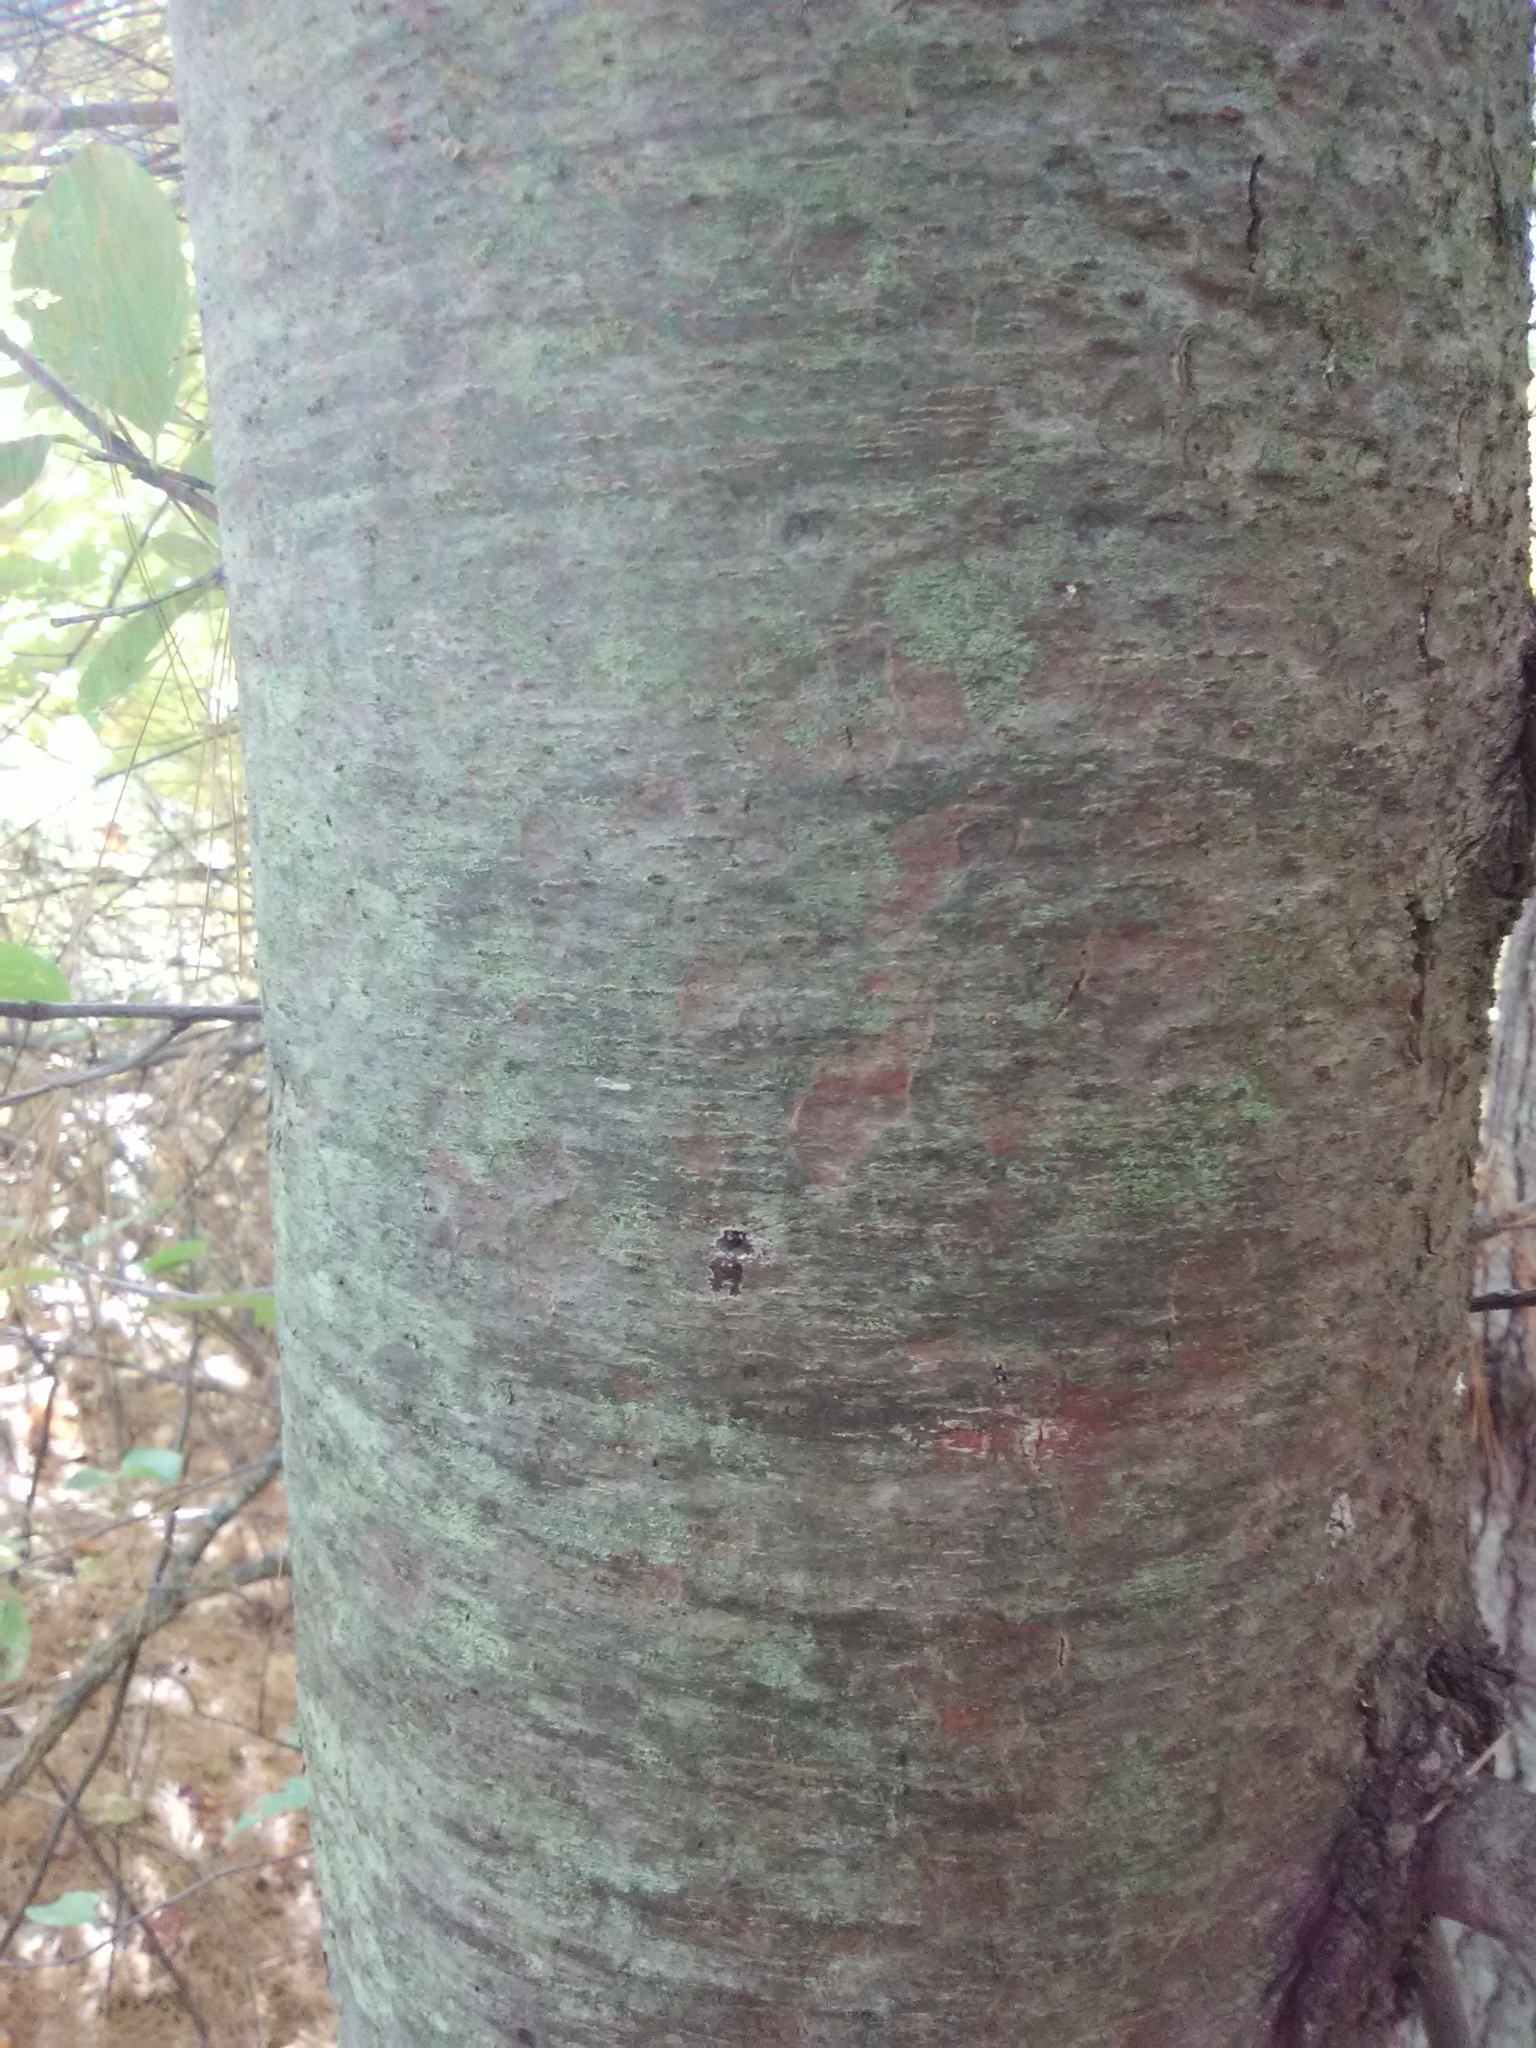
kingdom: Plantae
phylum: Tracheophyta
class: Pinopsida
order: Pinales
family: Pinaceae
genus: Pinus
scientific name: Pinus strobus
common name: Weymouth pine
